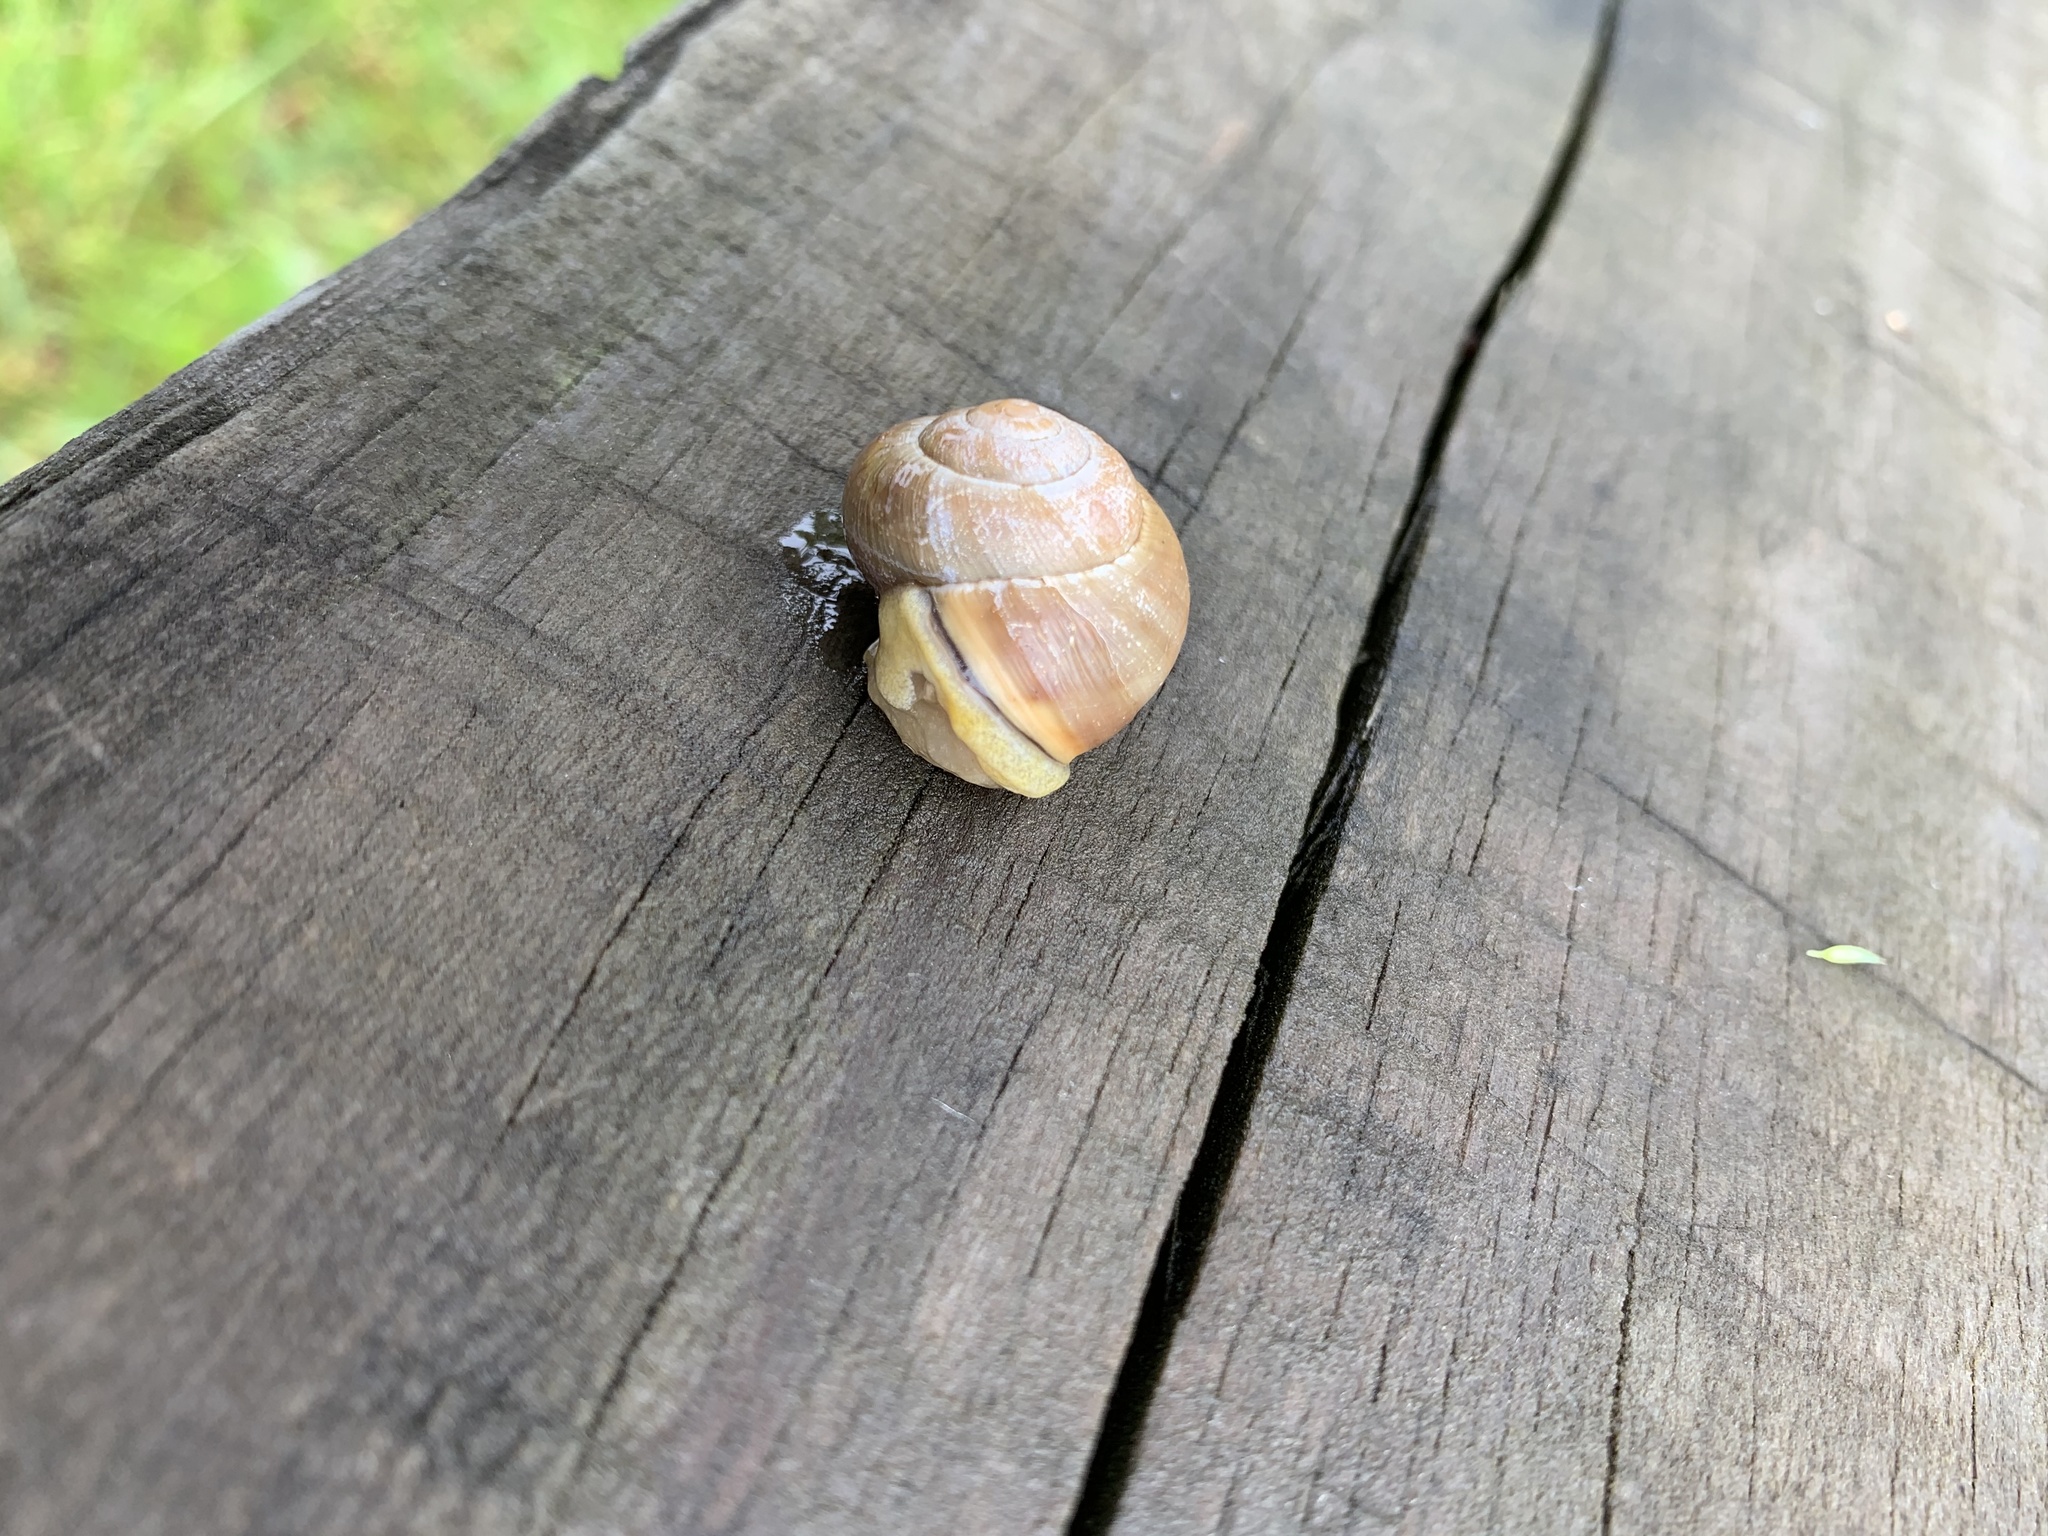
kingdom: Animalia
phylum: Mollusca
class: Gastropoda
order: Stylommatophora
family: Helicidae
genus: Cepaea
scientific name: Cepaea nemoralis
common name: Grovesnail
